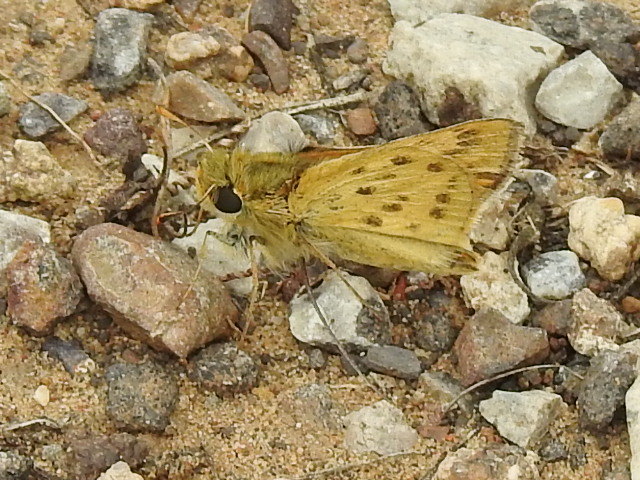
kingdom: Animalia
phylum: Arthropoda
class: Insecta
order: Lepidoptera
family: Hesperiidae
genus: Hylephila
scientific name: Hylephila phyleus
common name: Fiery skipper
